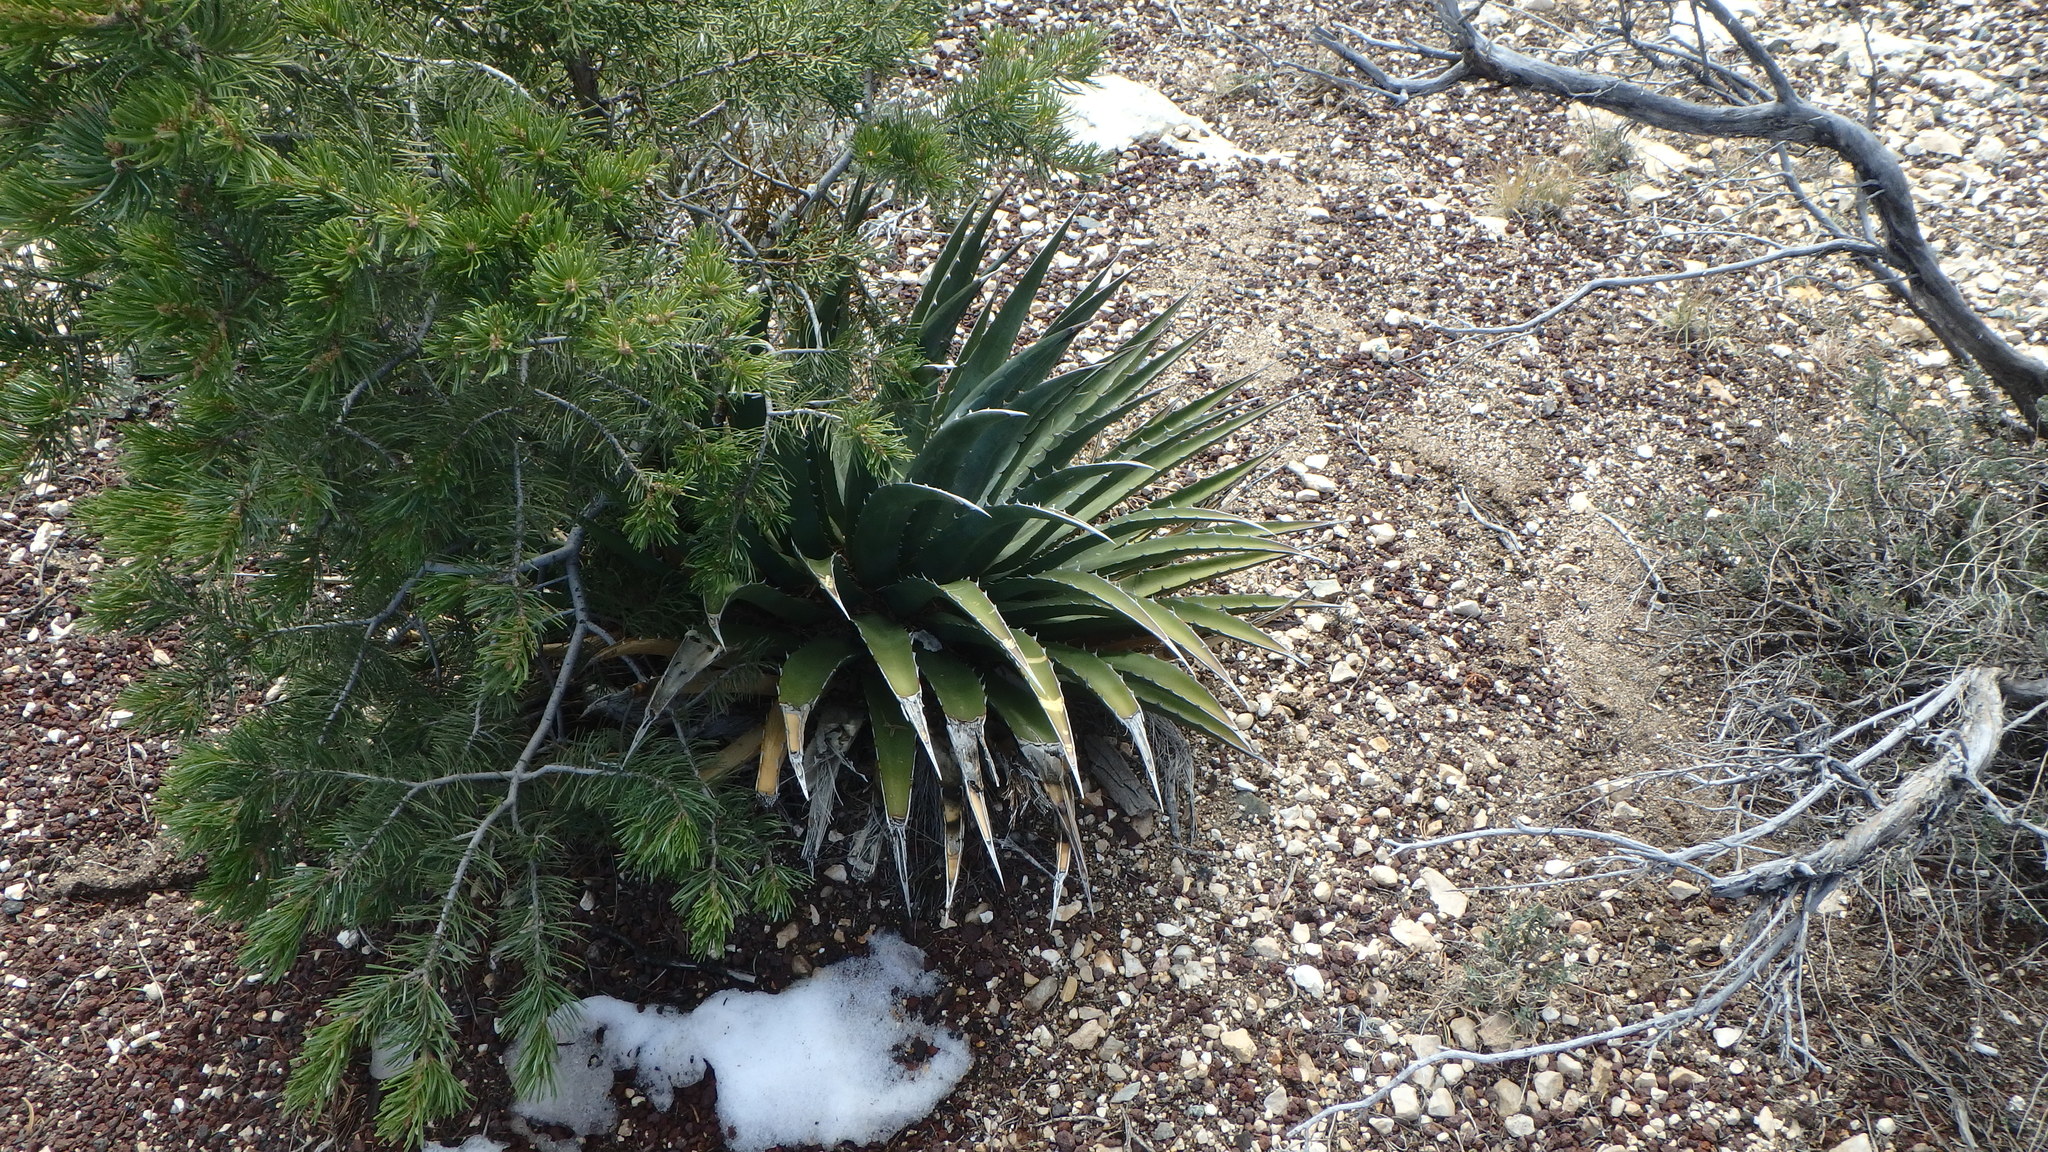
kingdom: Plantae
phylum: Tracheophyta
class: Liliopsida
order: Asparagales
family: Asparagaceae
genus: Agave
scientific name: Agave utahensis
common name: Utah agave
